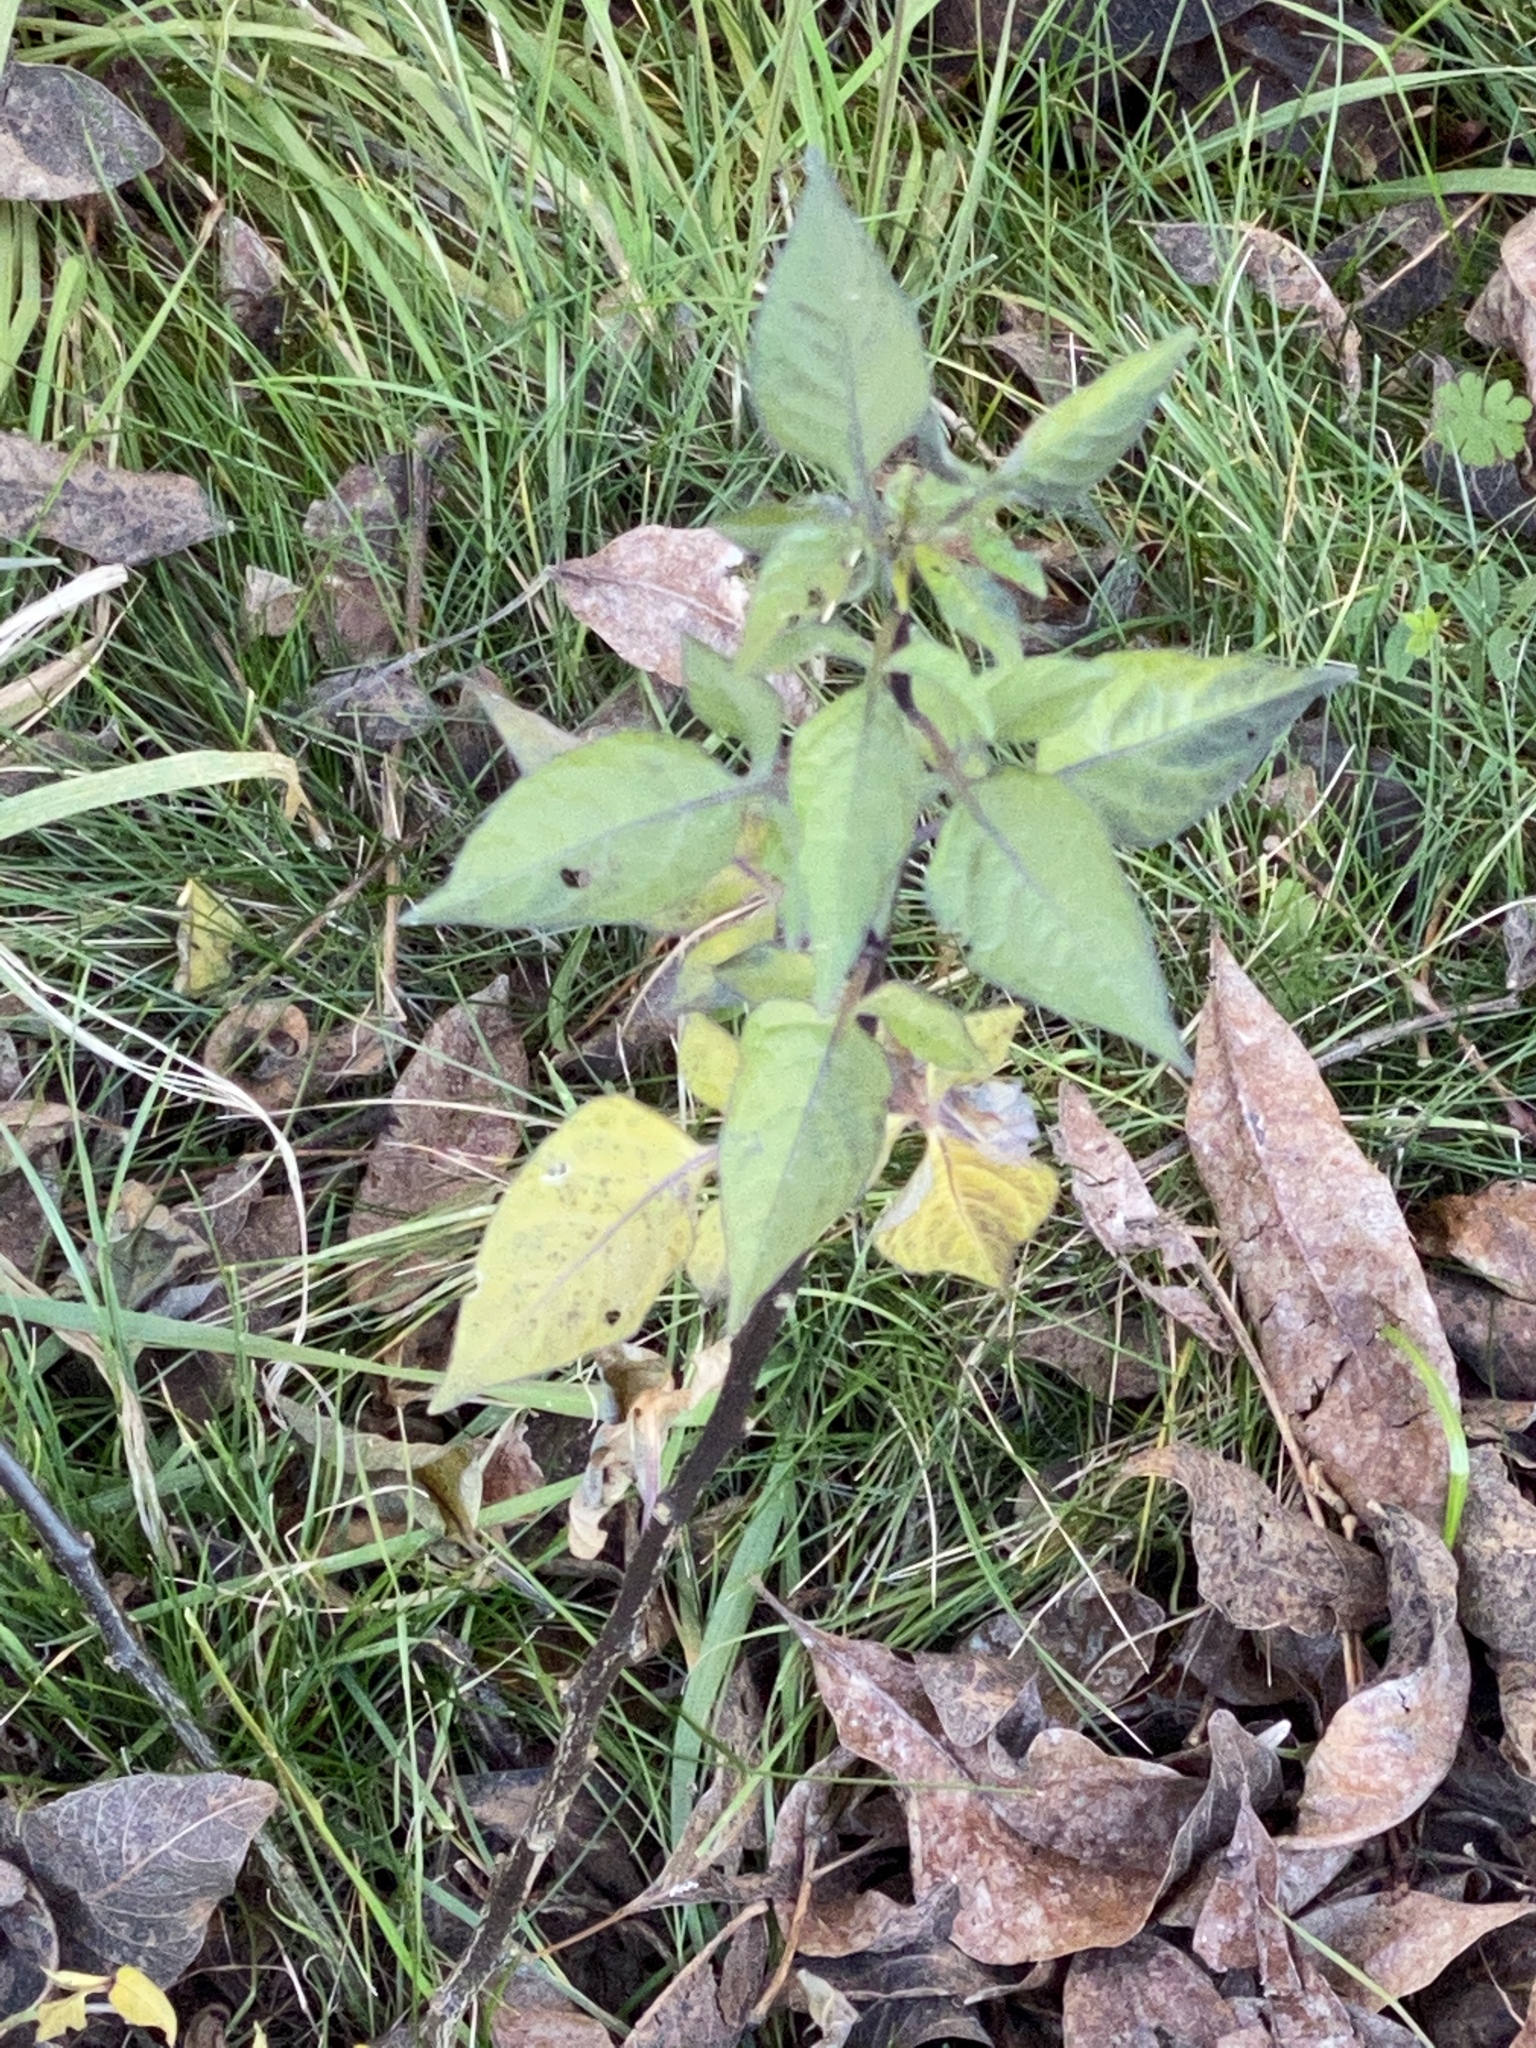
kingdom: Plantae
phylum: Tracheophyta
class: Magnoliopsida
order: Solanales
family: Solanaceae
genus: Solanum
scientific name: Solanum dulcamara
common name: Climbing nightshade
